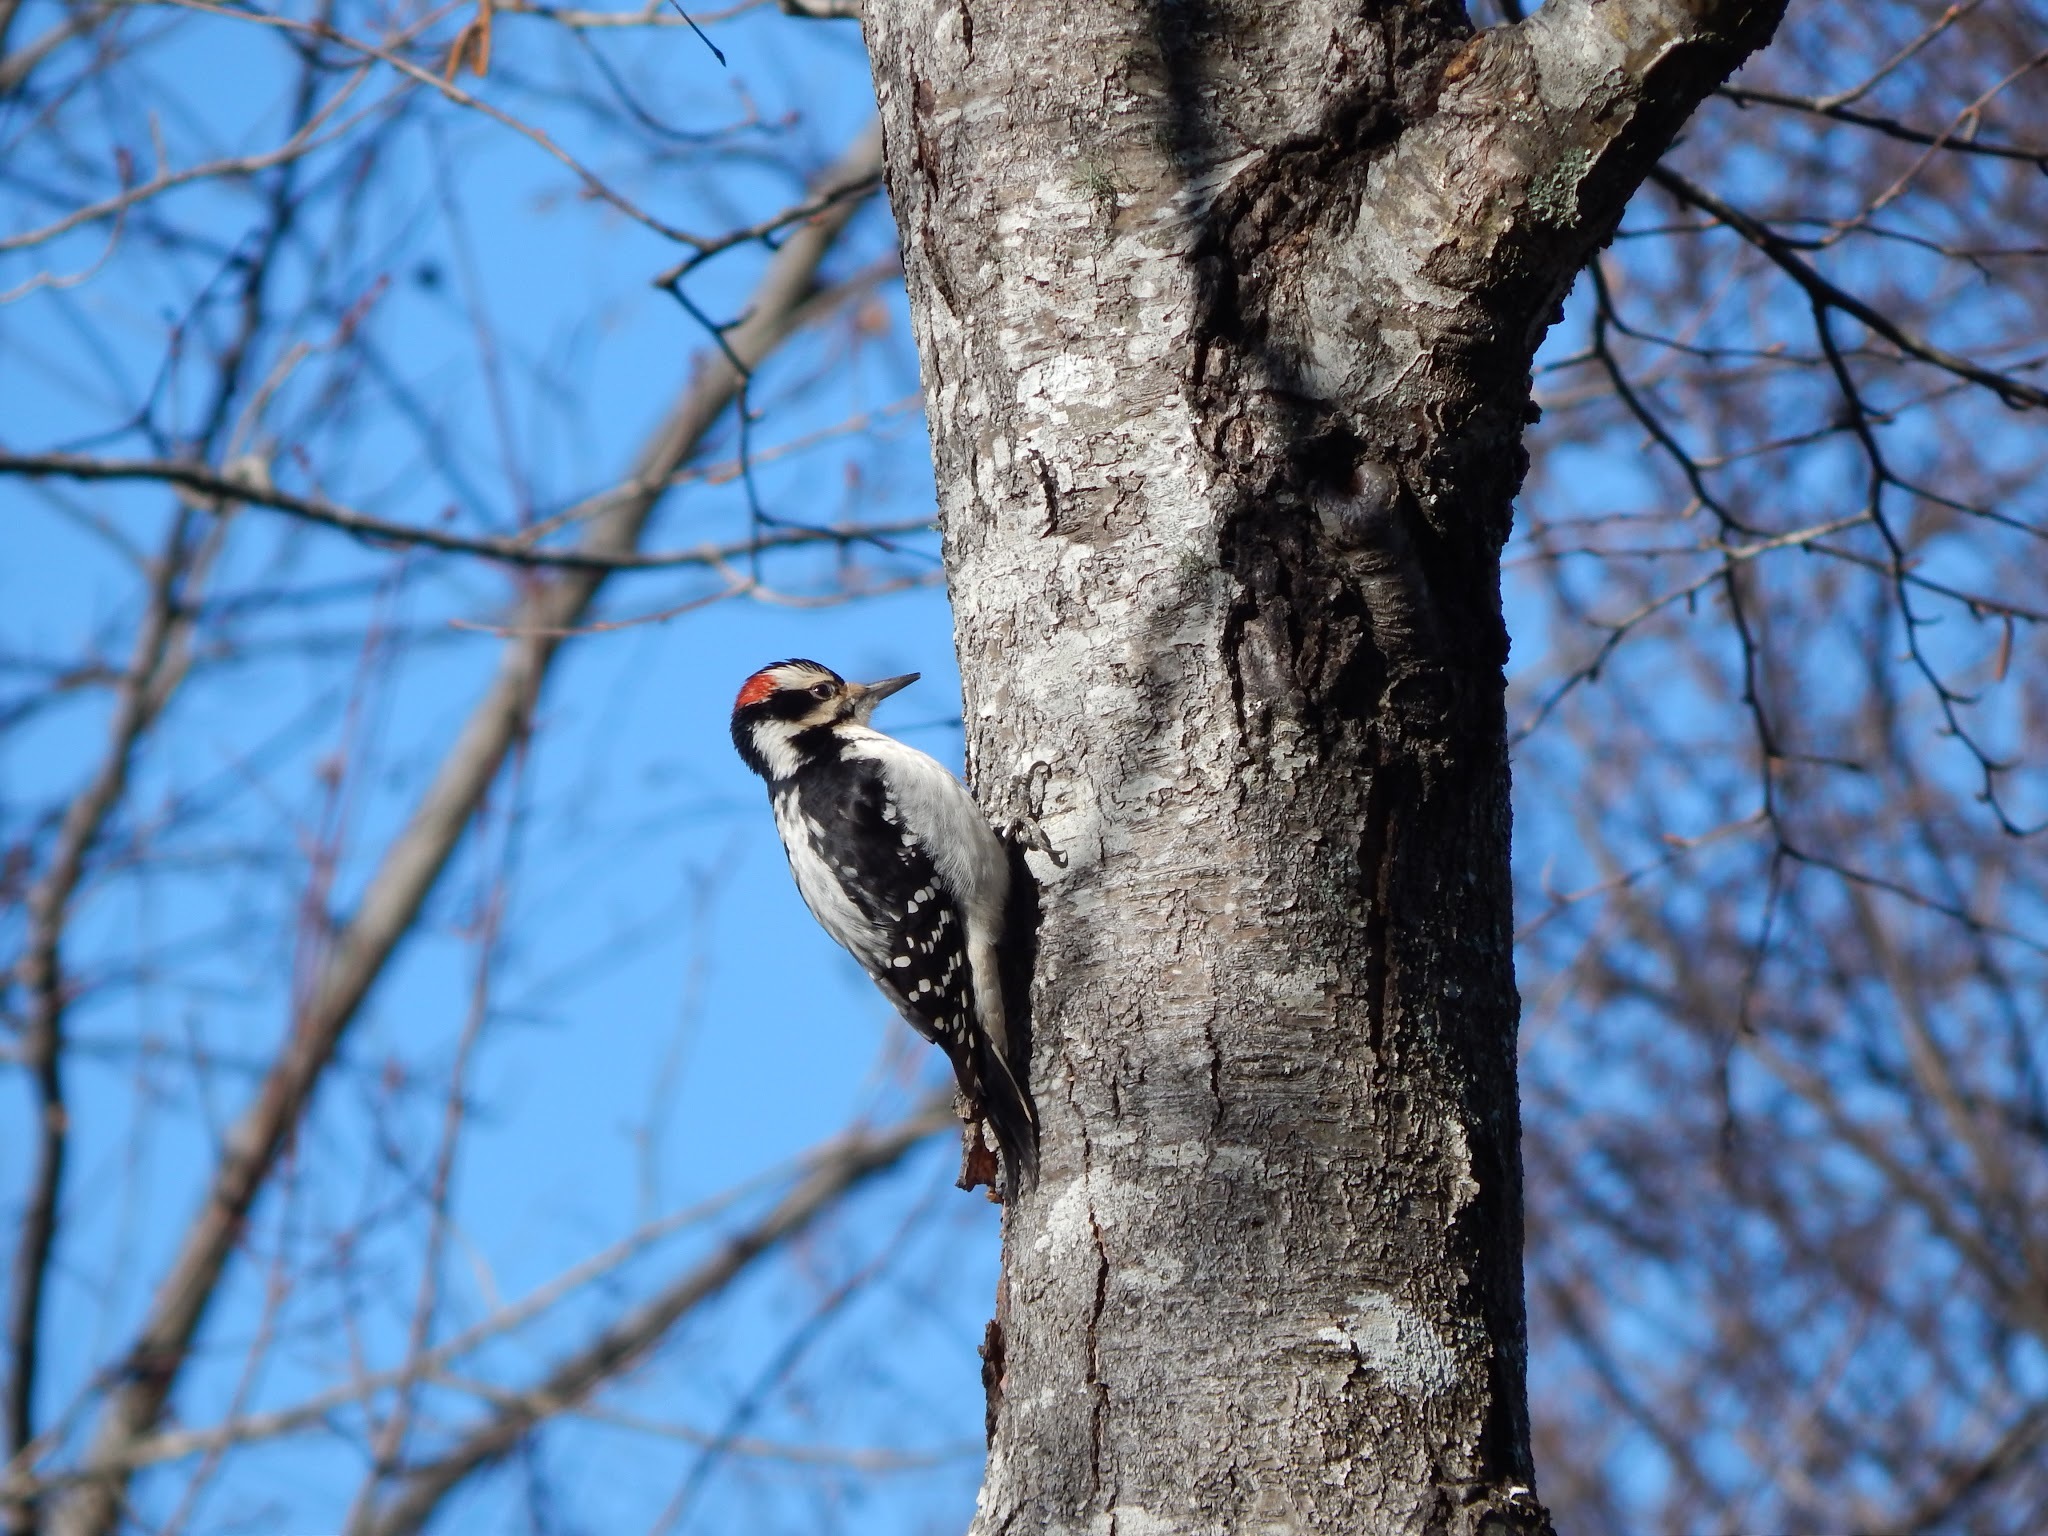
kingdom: Animalia
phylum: Chordata
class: Aves
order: Piciformes
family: Picidae
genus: Leuconotopicus
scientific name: Leuconotopicus villosus
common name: Hairy woodpecker
